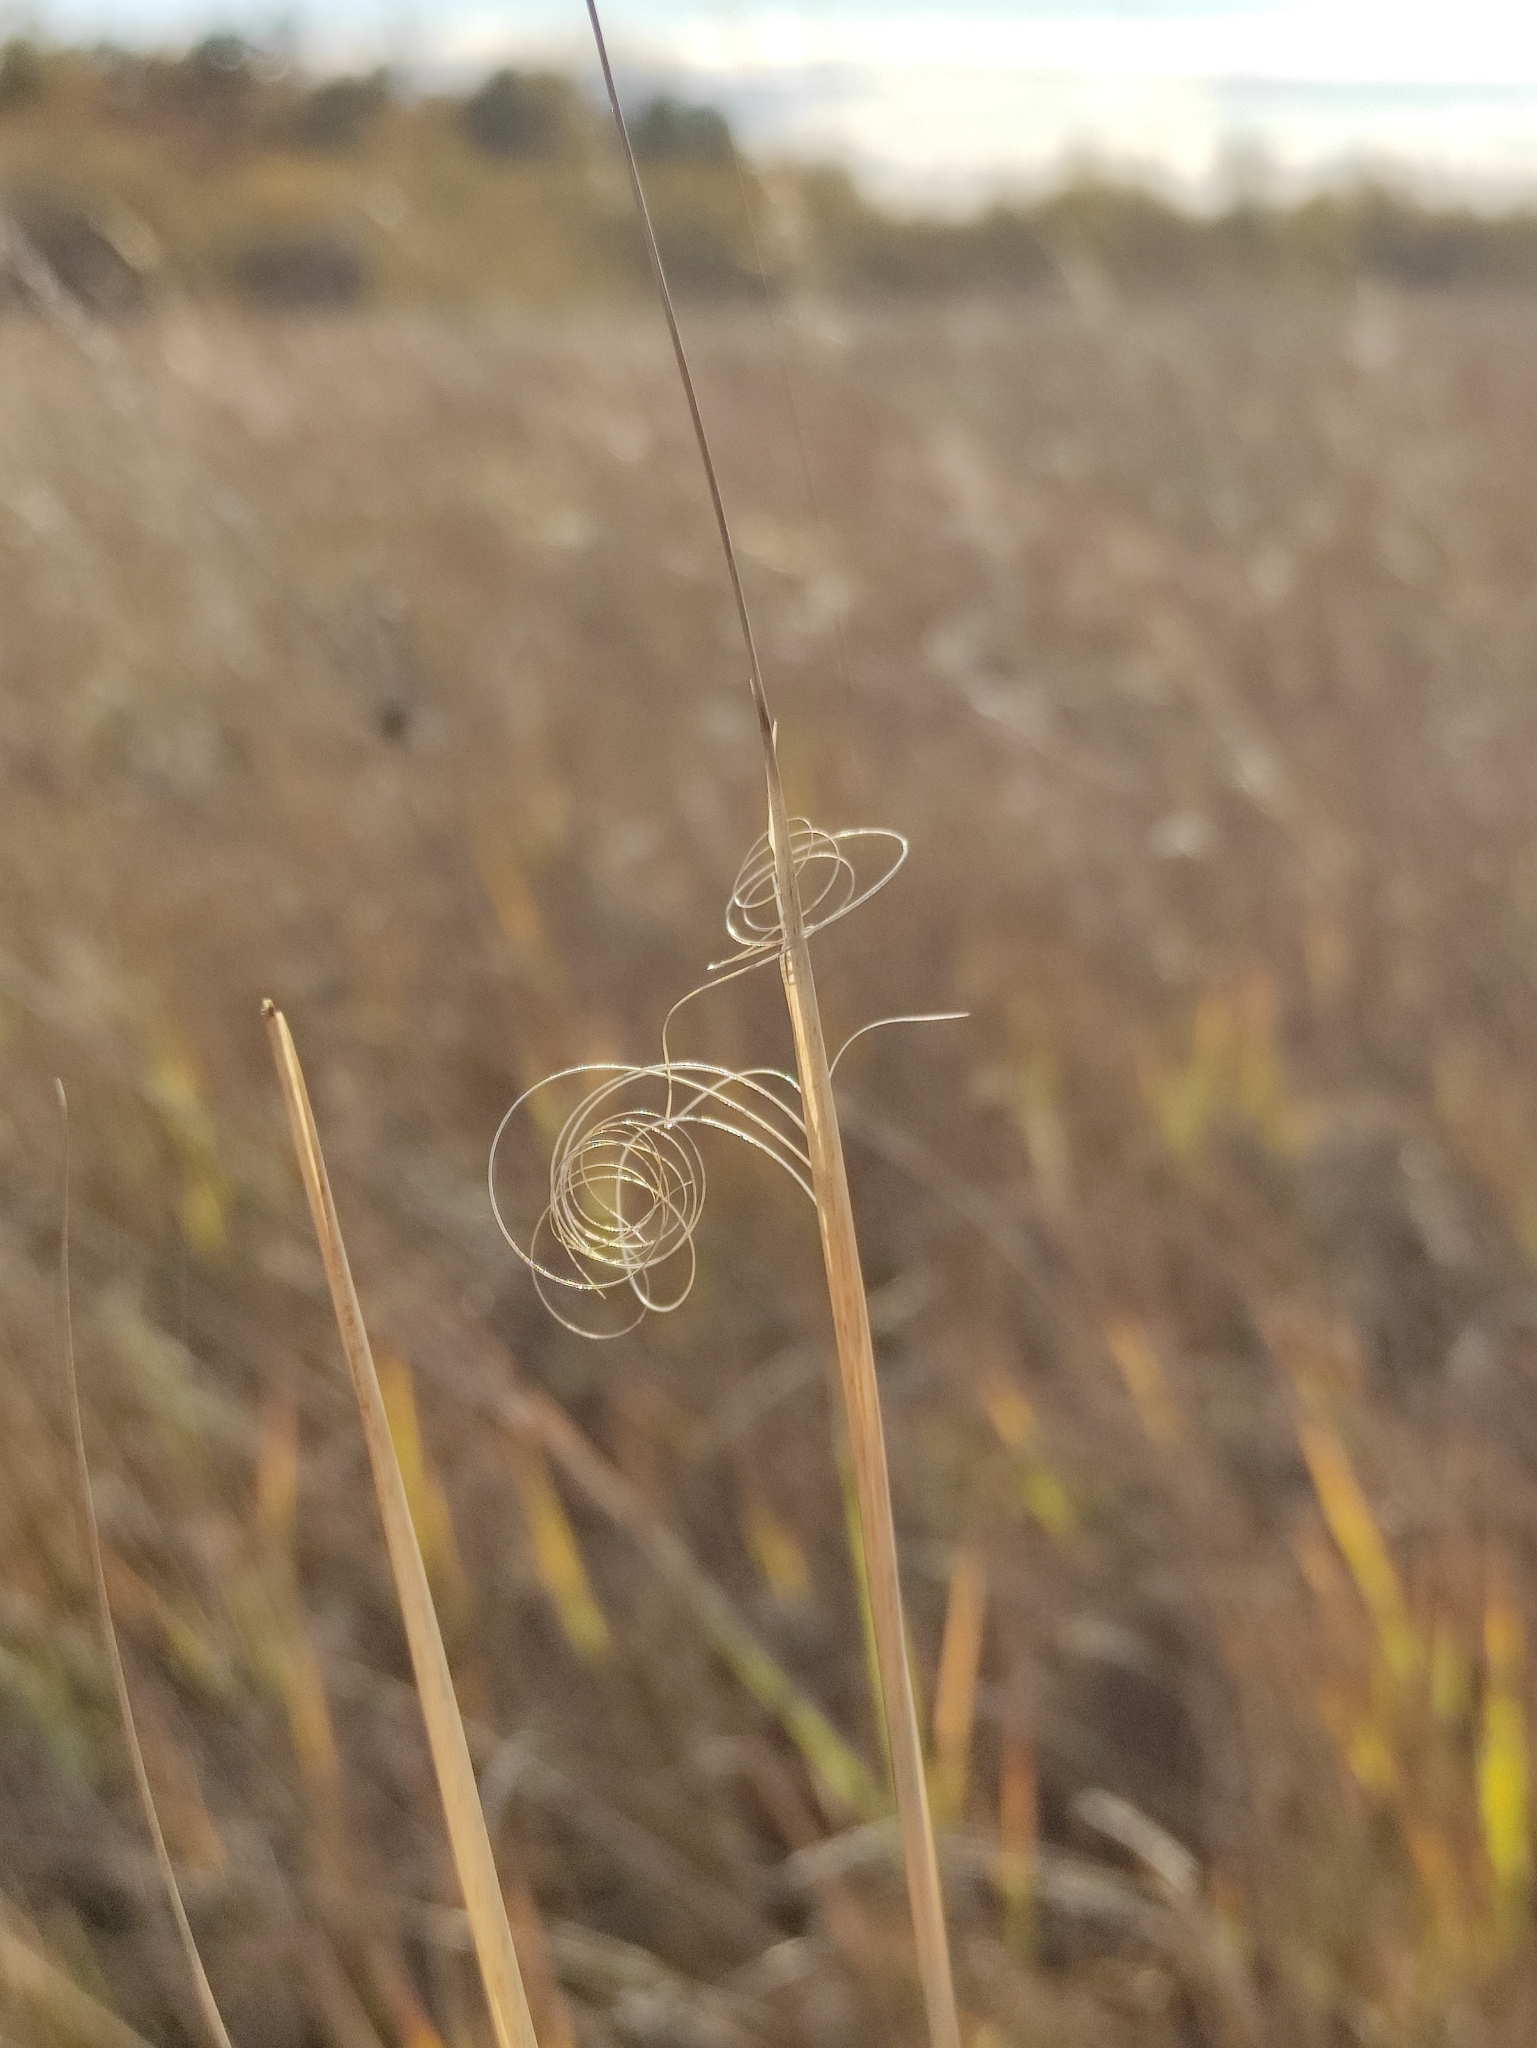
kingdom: Plantae
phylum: Tracheophyta
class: Liliopsida
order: Poales
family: Poaceae
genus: Stipa
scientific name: Stipa capillata
